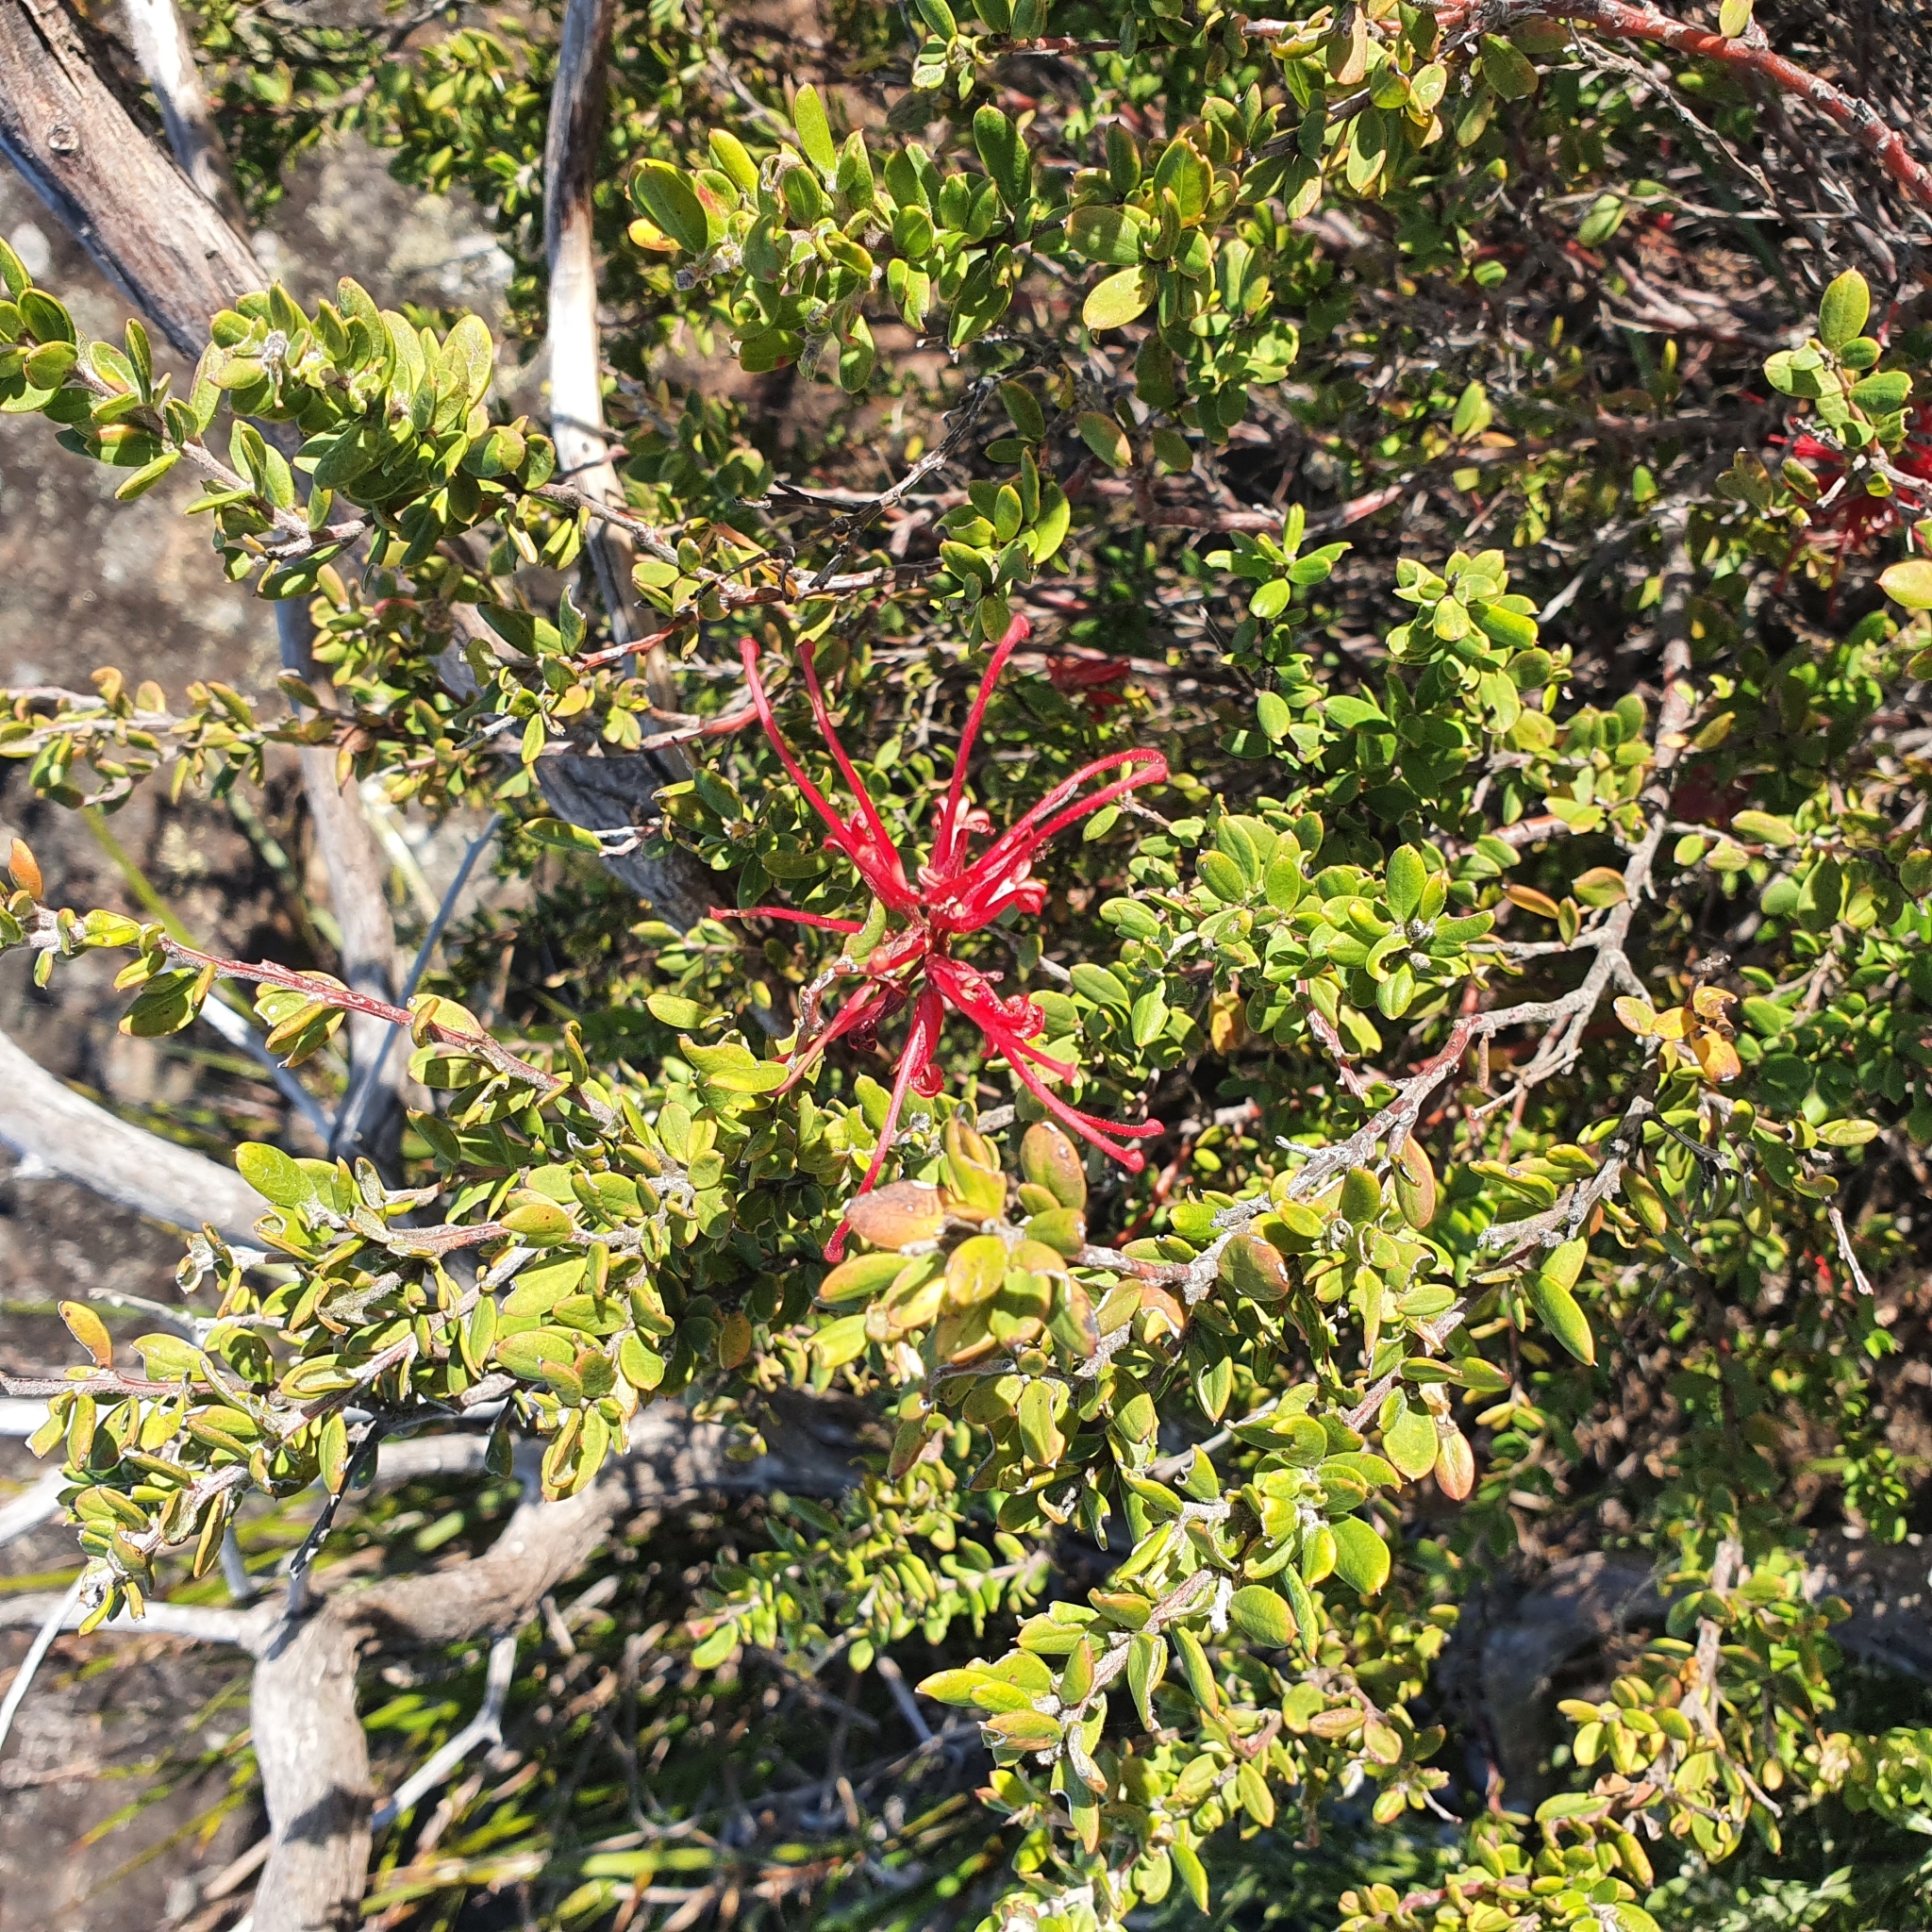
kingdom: Plantae
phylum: Tracheophyta
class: Magnoliopsida
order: Proteales
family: Proteaceae
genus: Grevillea
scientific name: Grevillea speciosa
